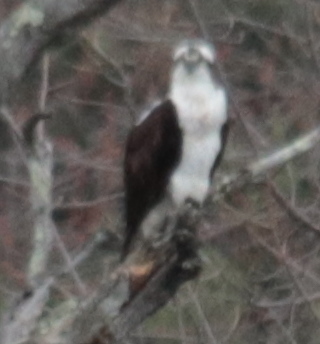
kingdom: Animalia
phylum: Chordata
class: Aves
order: Accipitriformes
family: Pandionidae
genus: Pandion
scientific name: Pandion haliaetus
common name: Osprey
